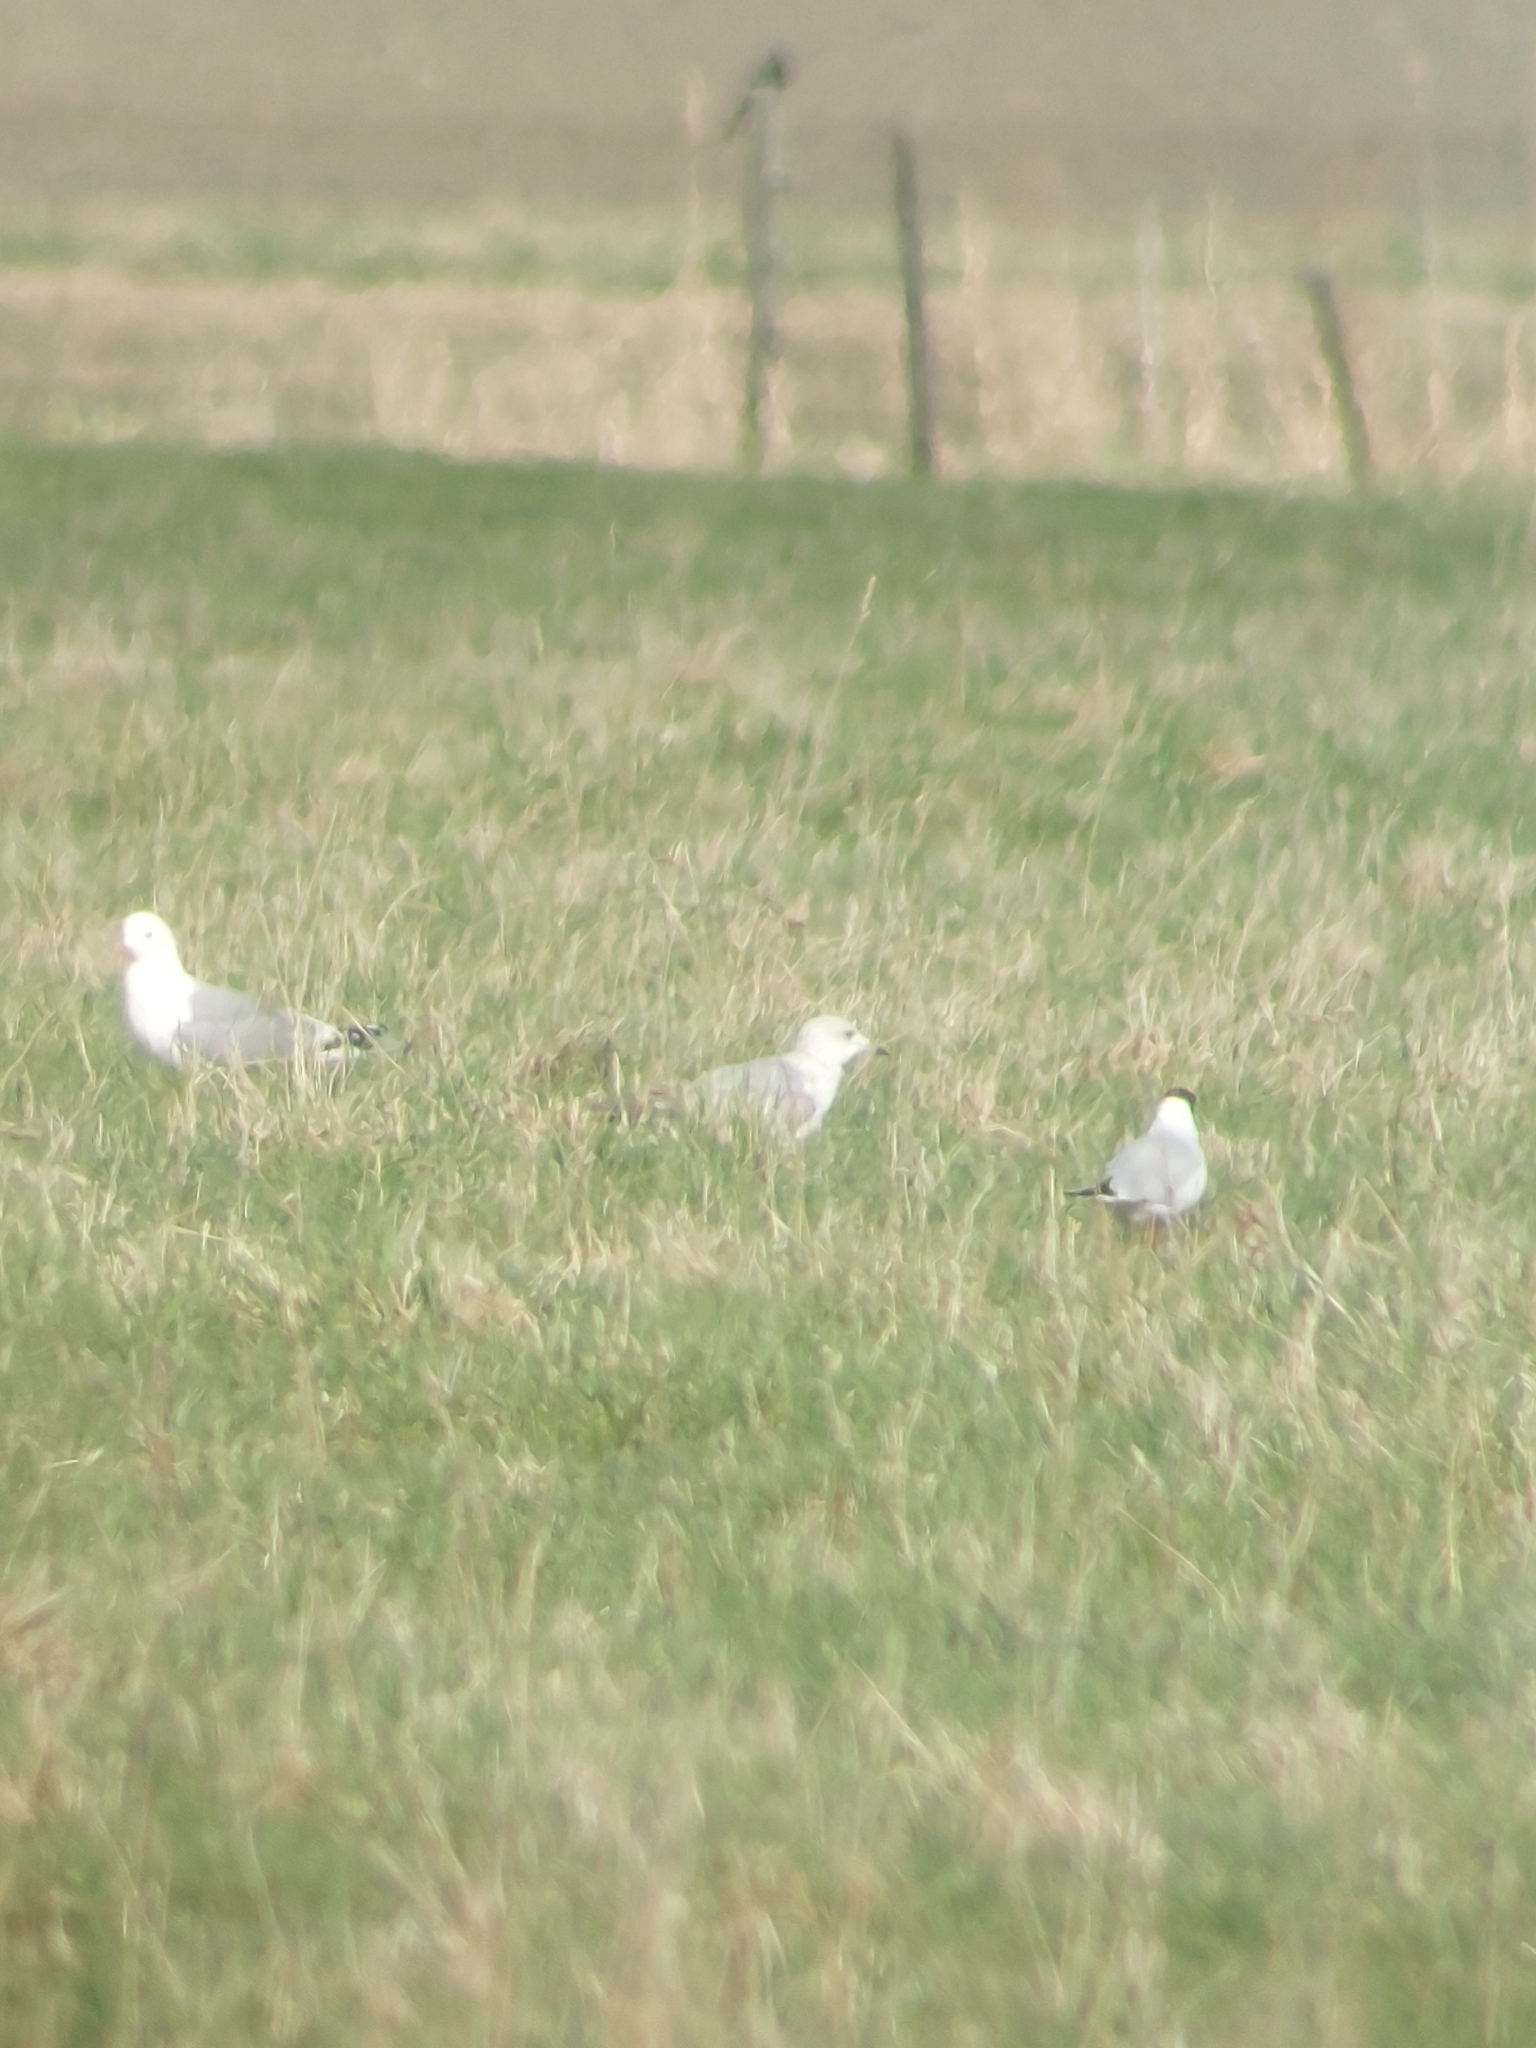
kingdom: Animalia
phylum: Chordata
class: Aves
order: Charadriiformes
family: Laridae
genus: Larus
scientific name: Larus canus
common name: Mew gull
